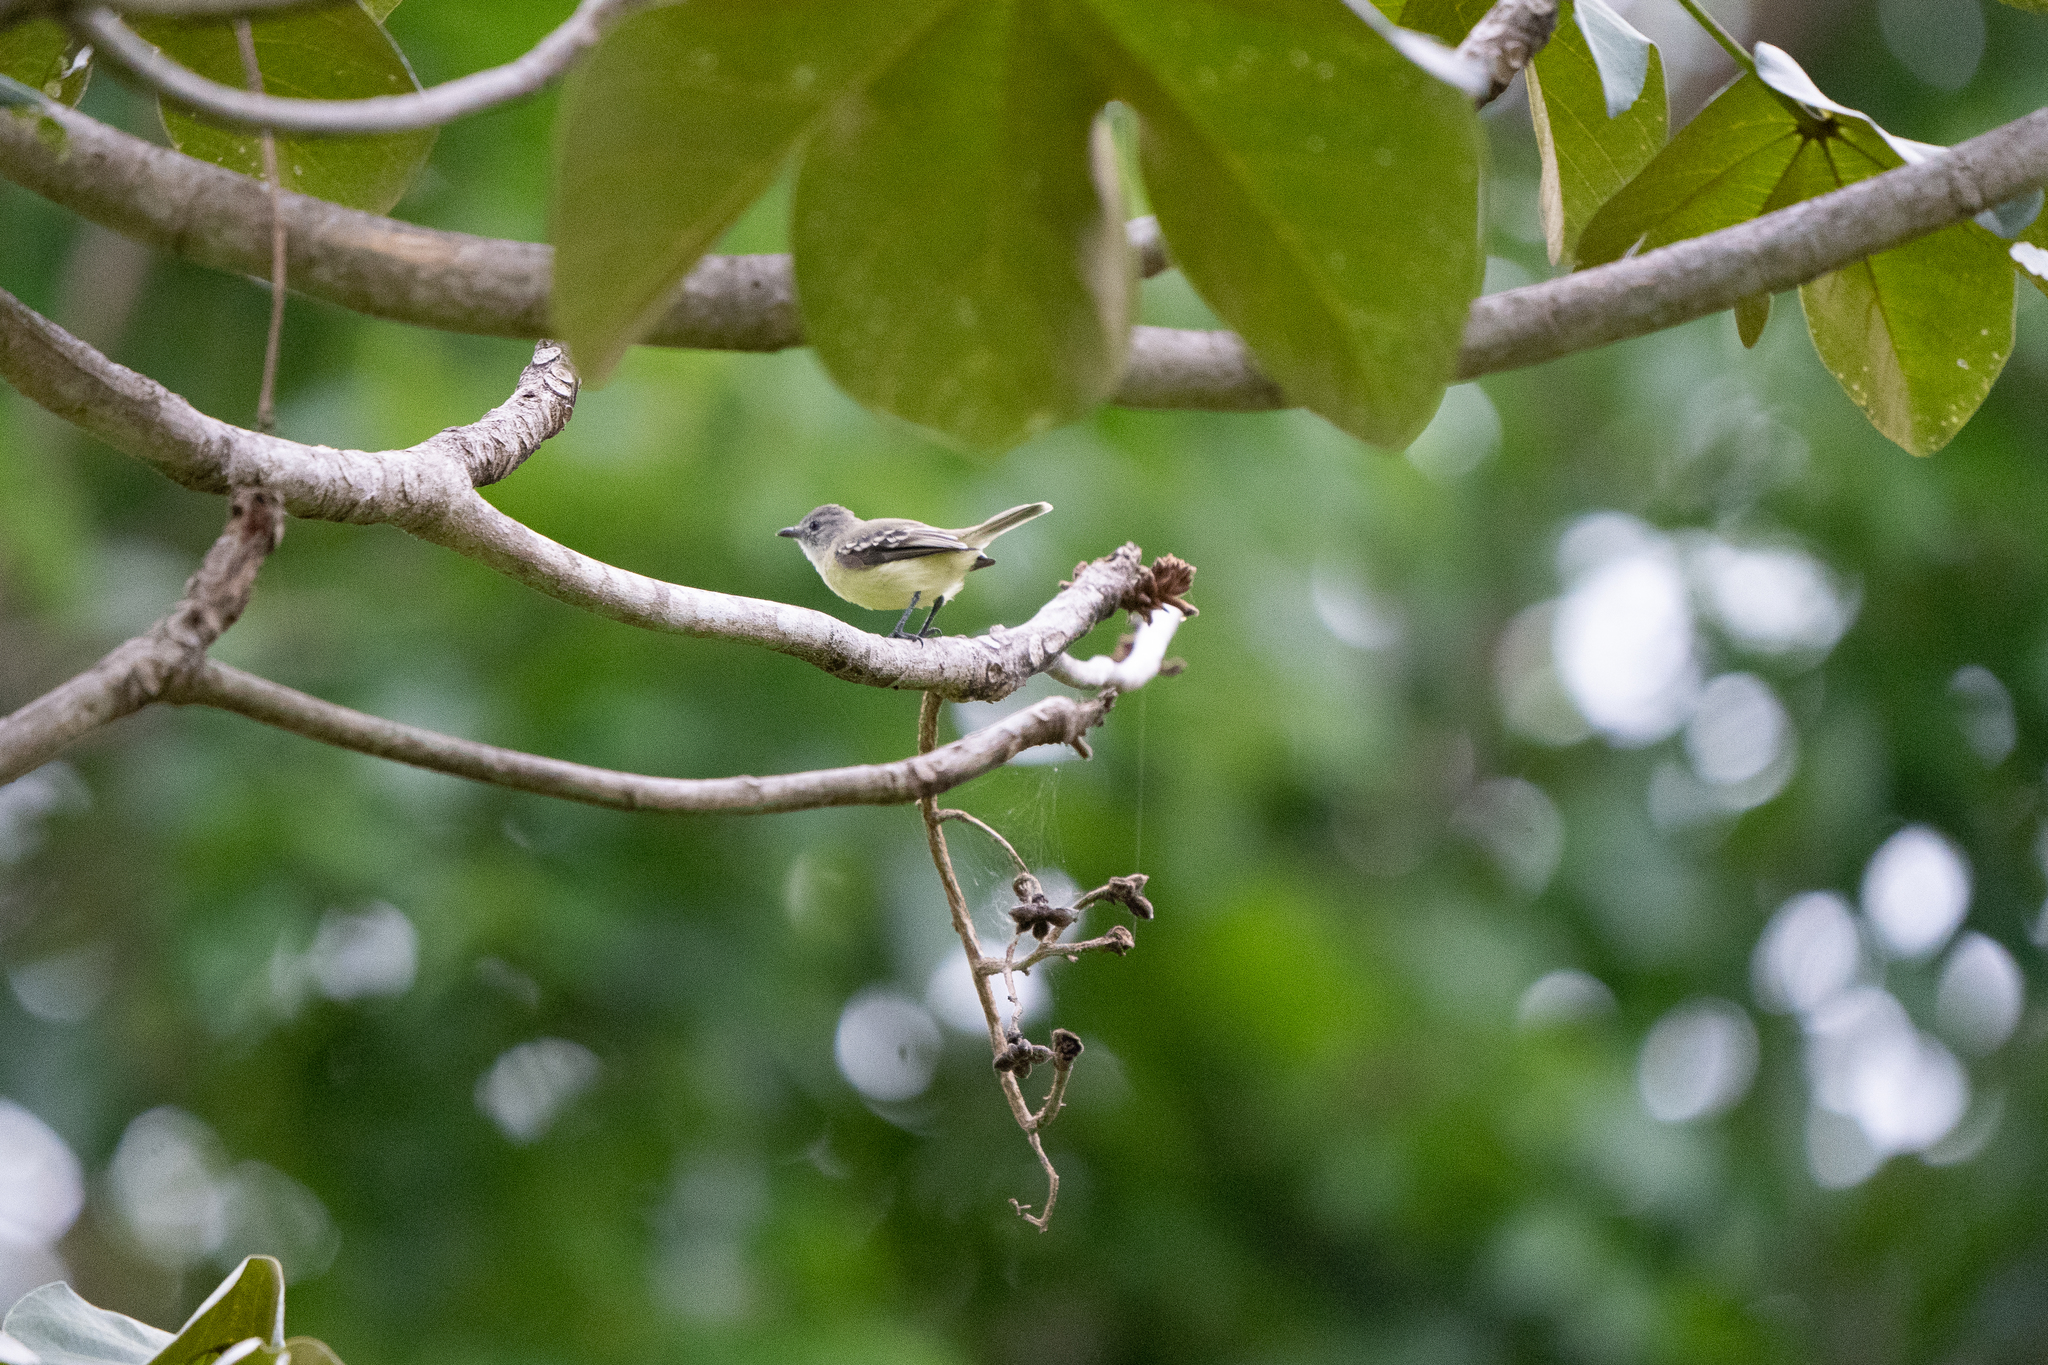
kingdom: Animalia
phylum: Chordata
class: Aves
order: Passeriformes
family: Tyrannidae
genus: Camptostoma
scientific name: Camptostoma obsoletum
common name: Southern beardless-tyrannulet
